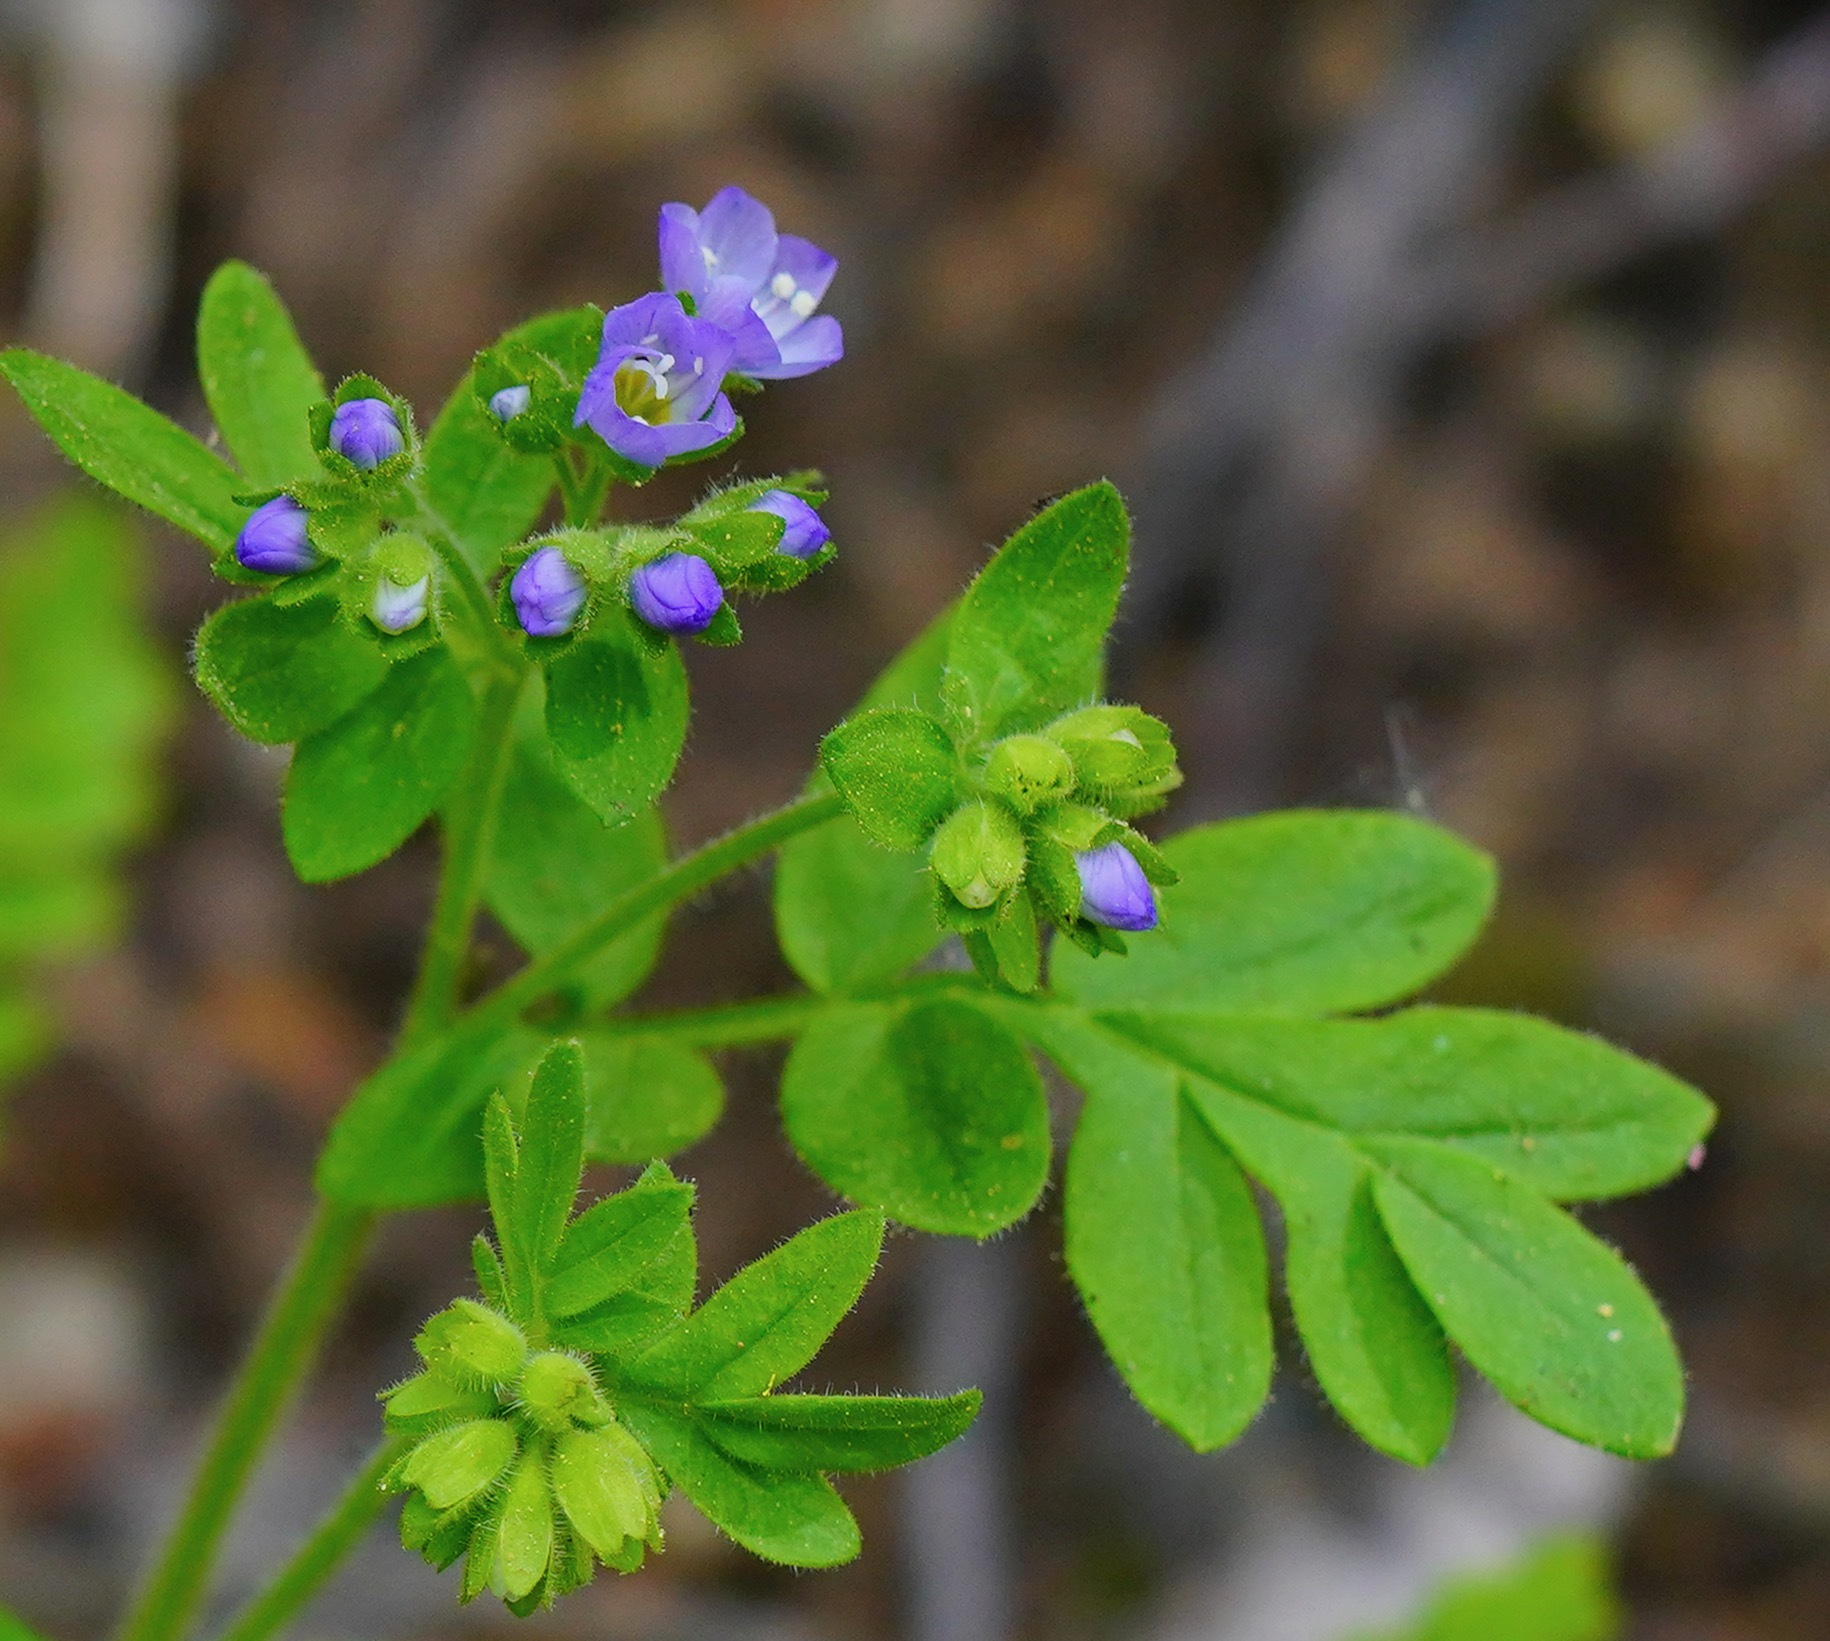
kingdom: Plantae
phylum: Tracheophyta
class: Magnoliopsida
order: Ericales
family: Polemoniaceae
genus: Polemonium
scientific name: Polemonium californicum
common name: California jacob's ladder
